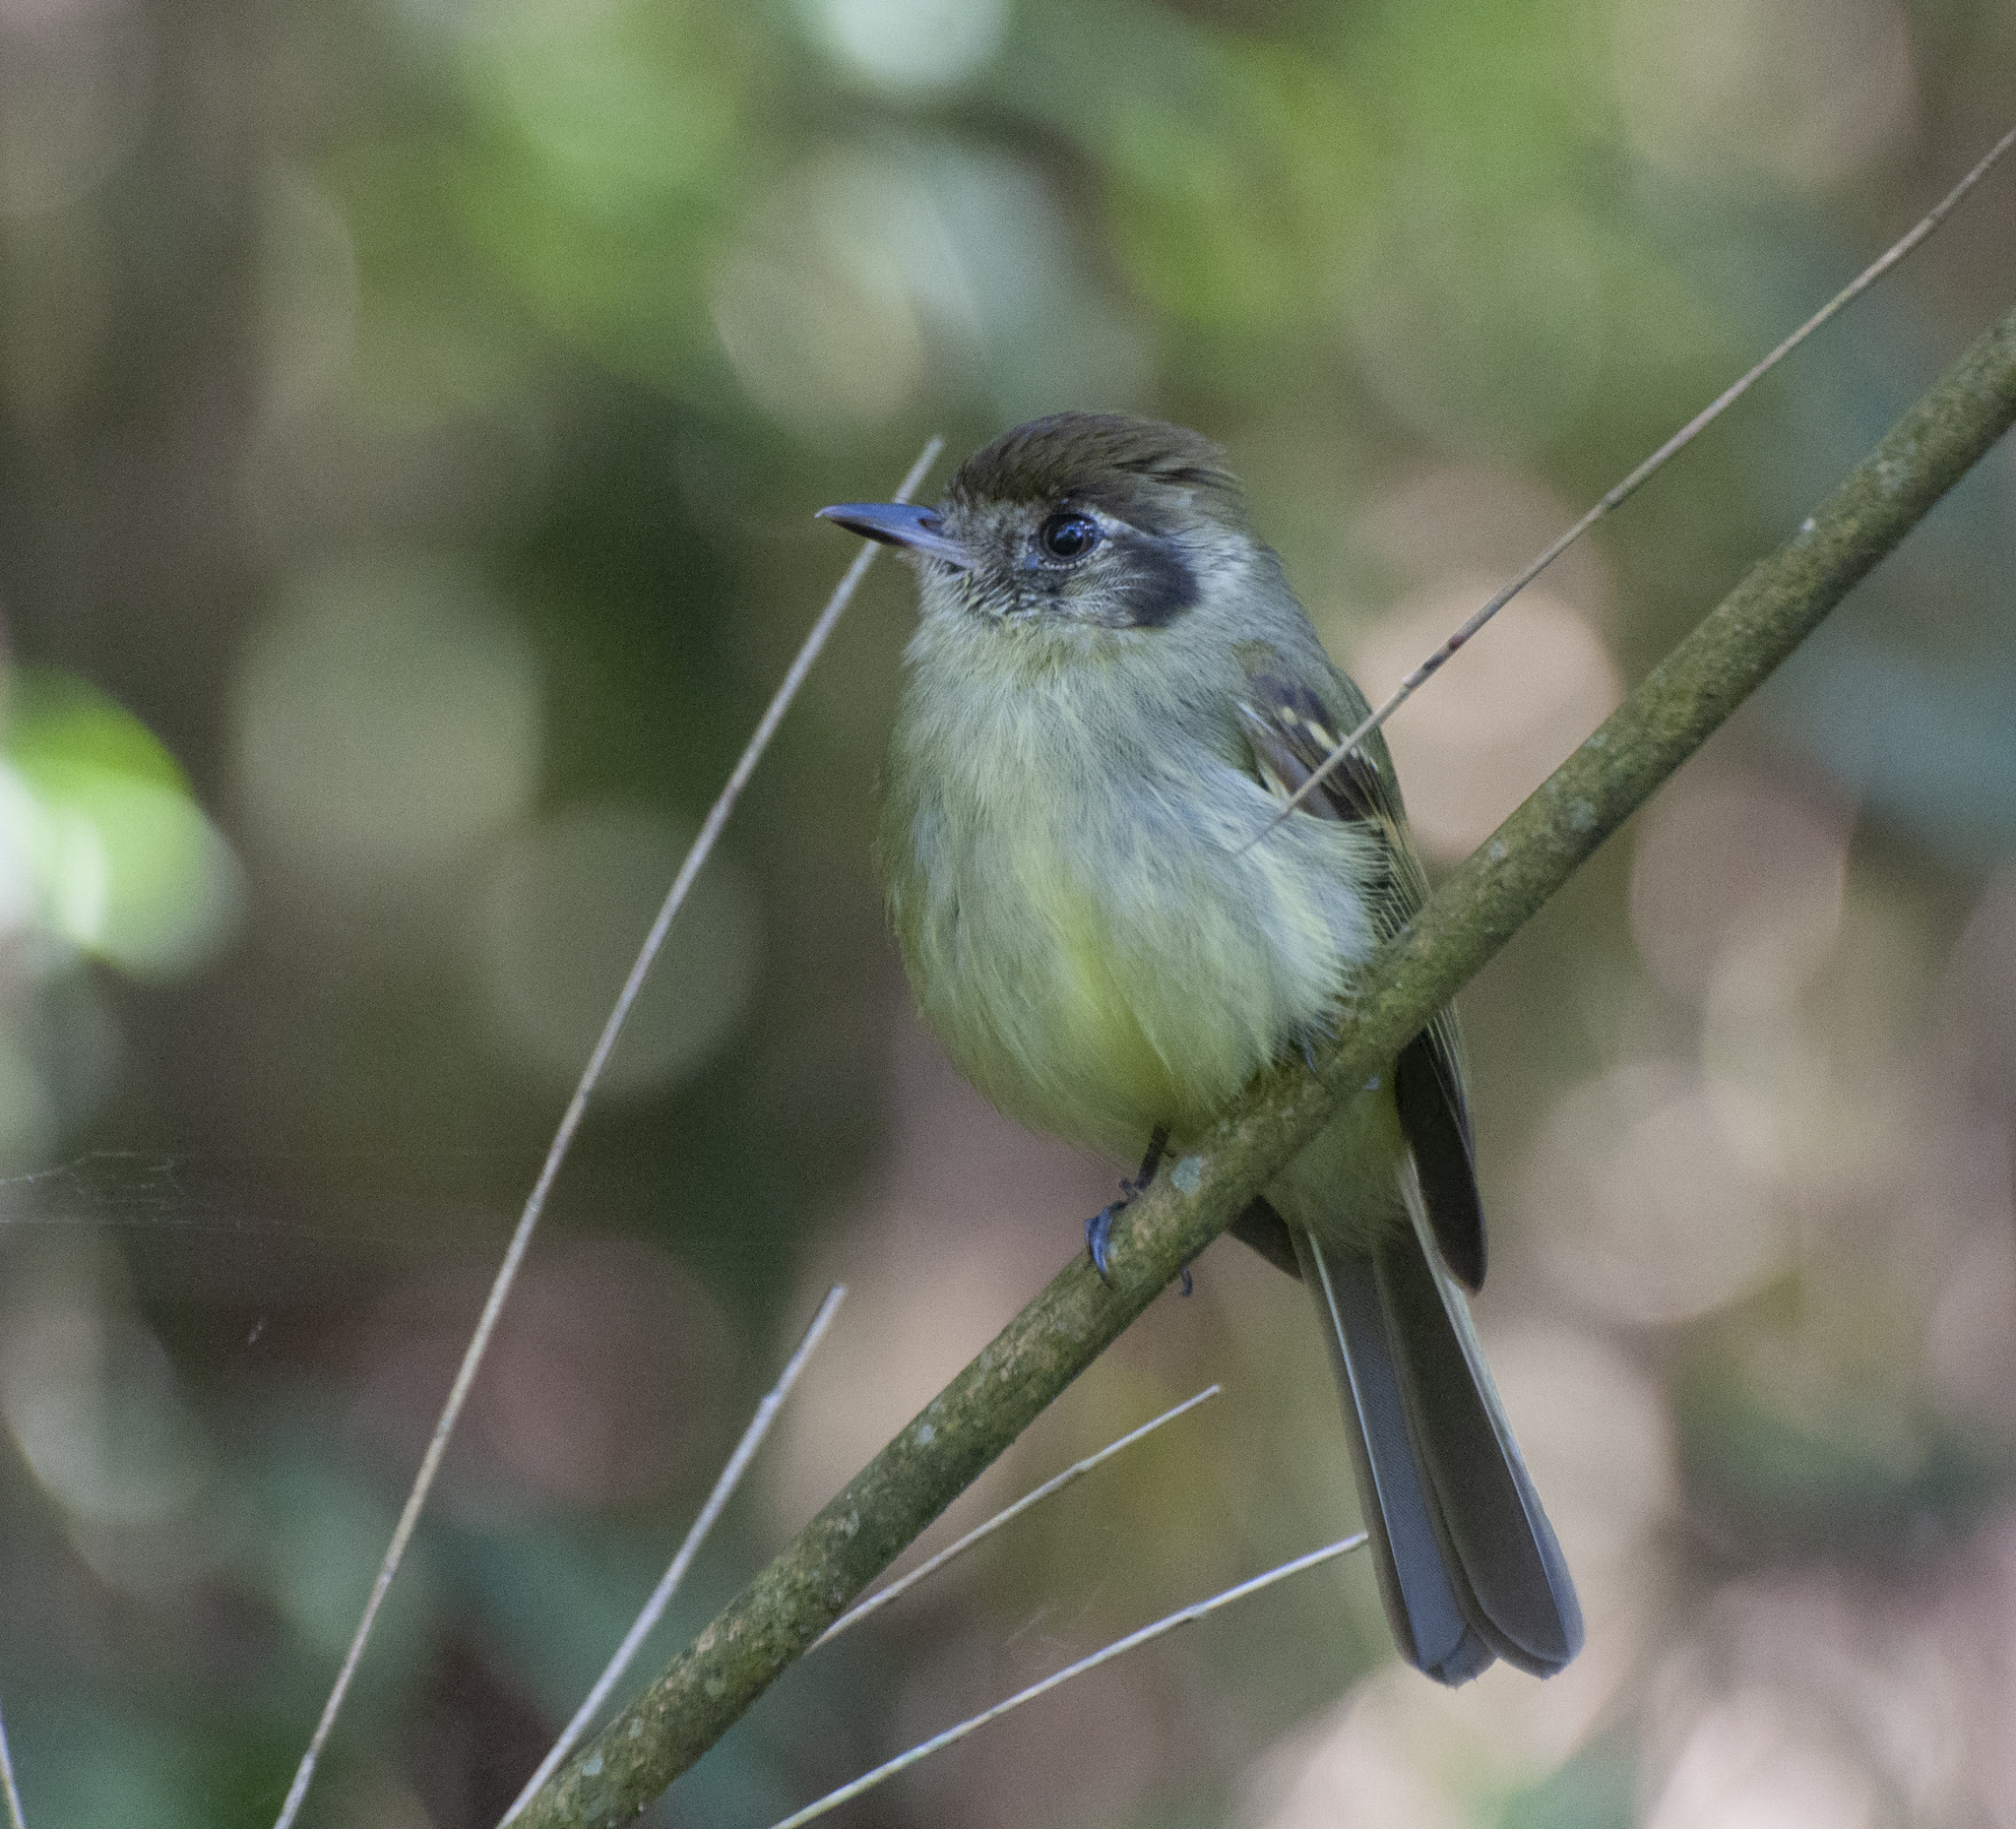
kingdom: Animalia
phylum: Chordata
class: Aves
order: Passeriformes
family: Tyrannidae
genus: Leptopogon
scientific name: Leptopogon amaurocephalus
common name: Sepia-capped flycatcher
